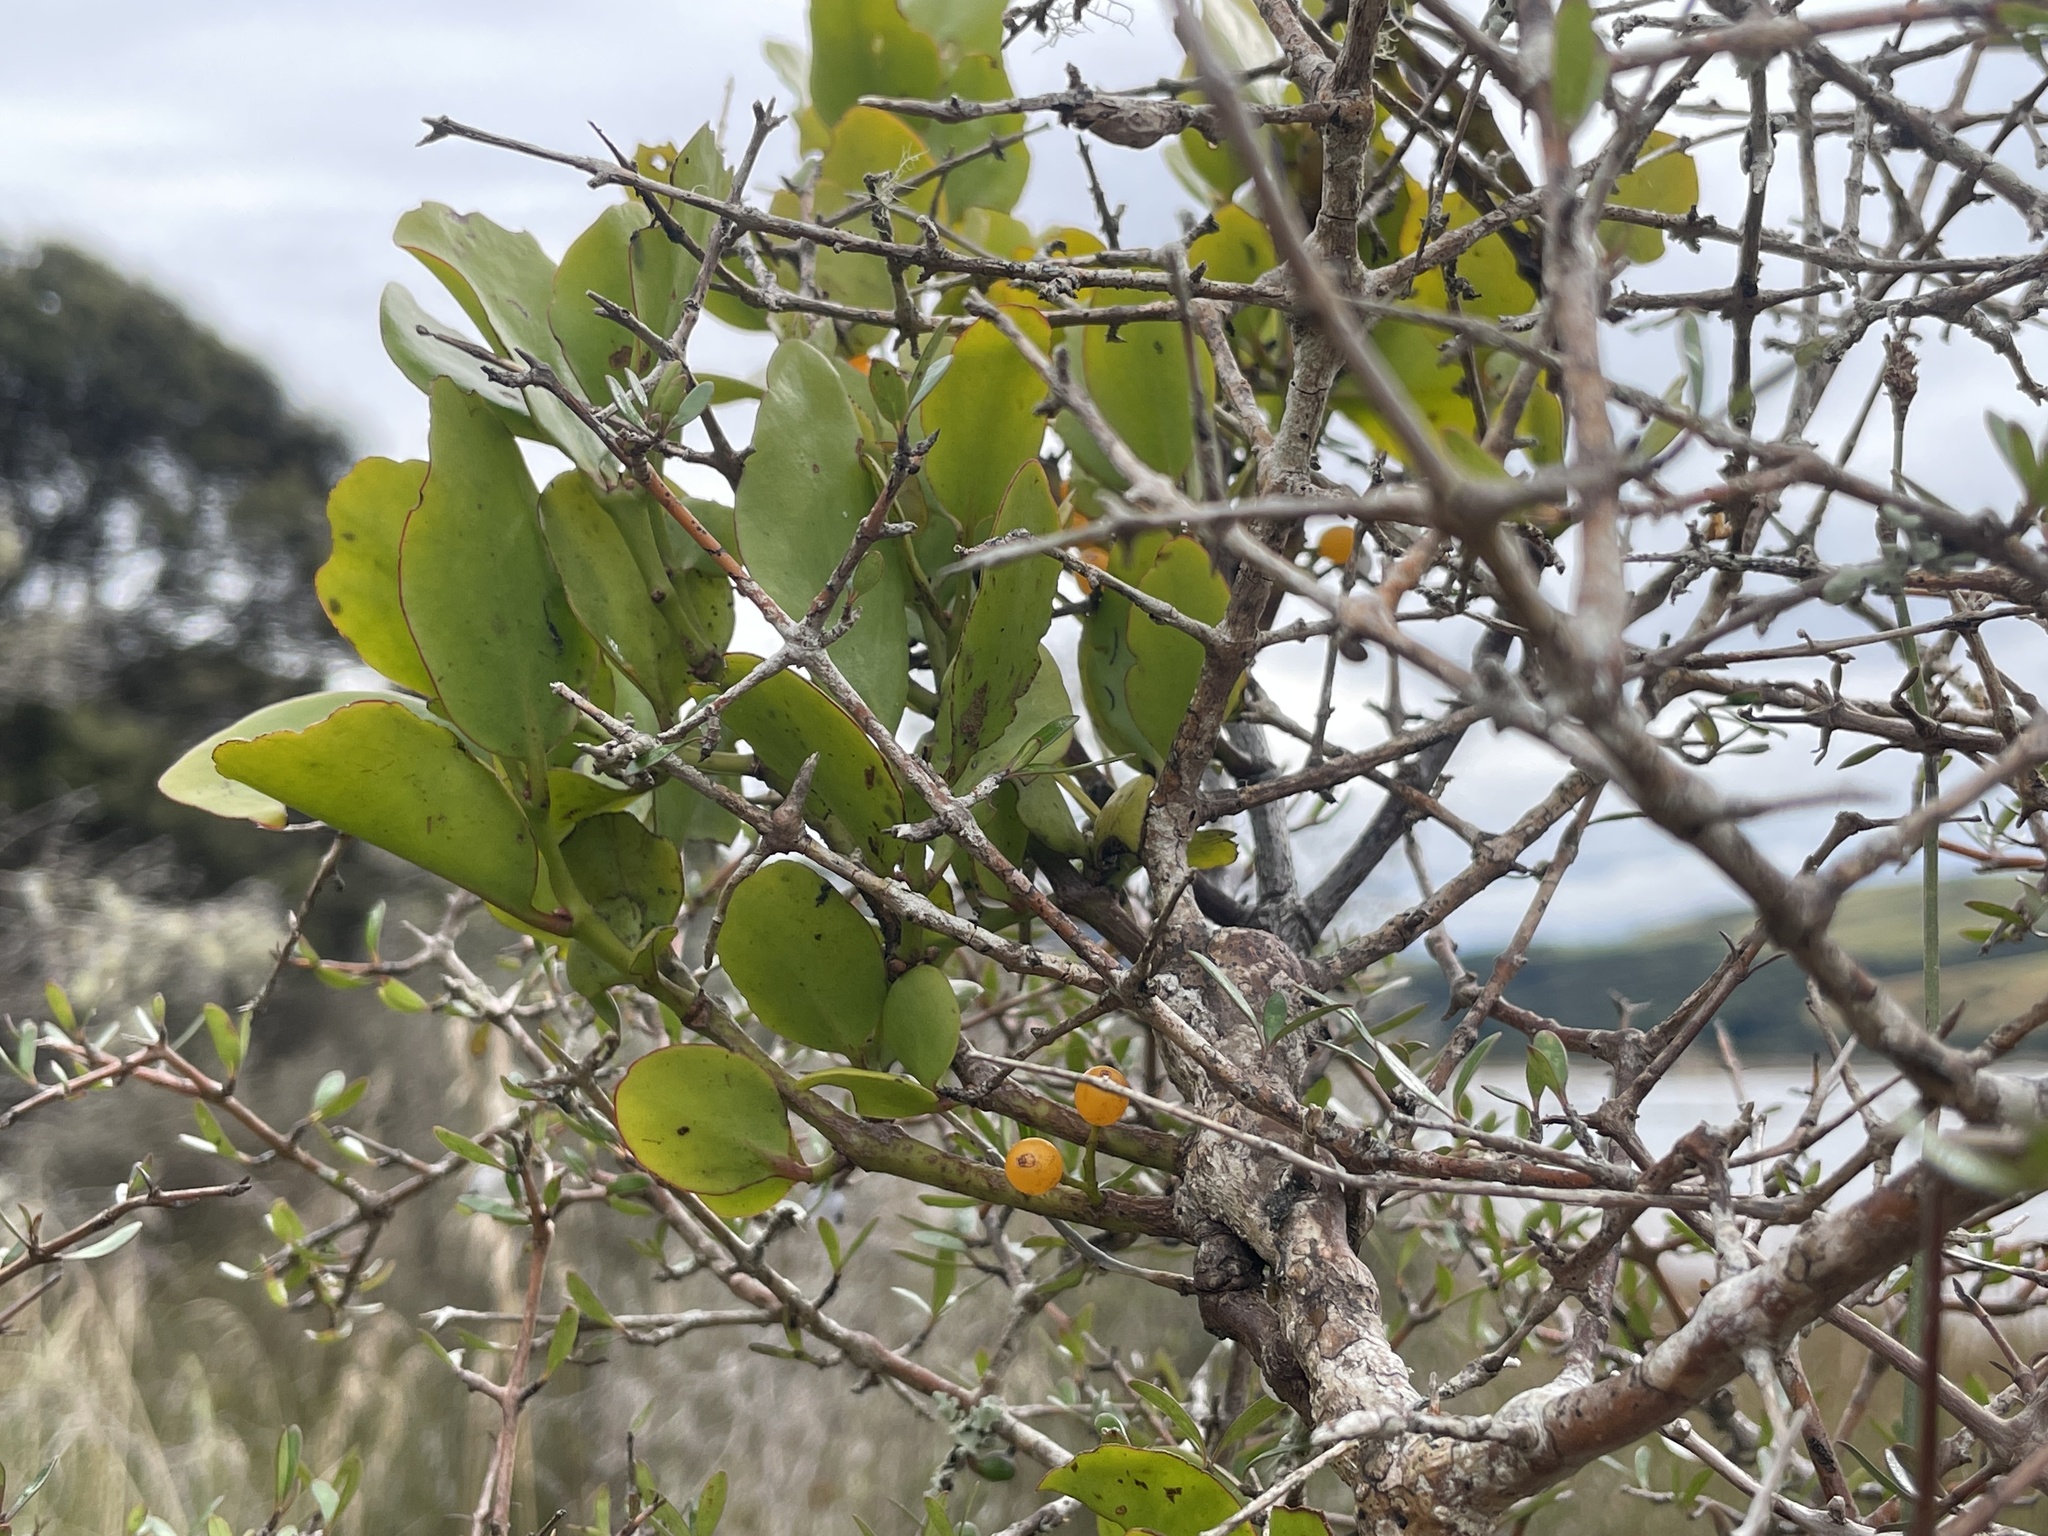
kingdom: Plantae
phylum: Tracheophyta
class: Magnoliopsida
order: Santalales
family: Loranthaceae
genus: Ileostylus
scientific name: Ileostylus micranthus
